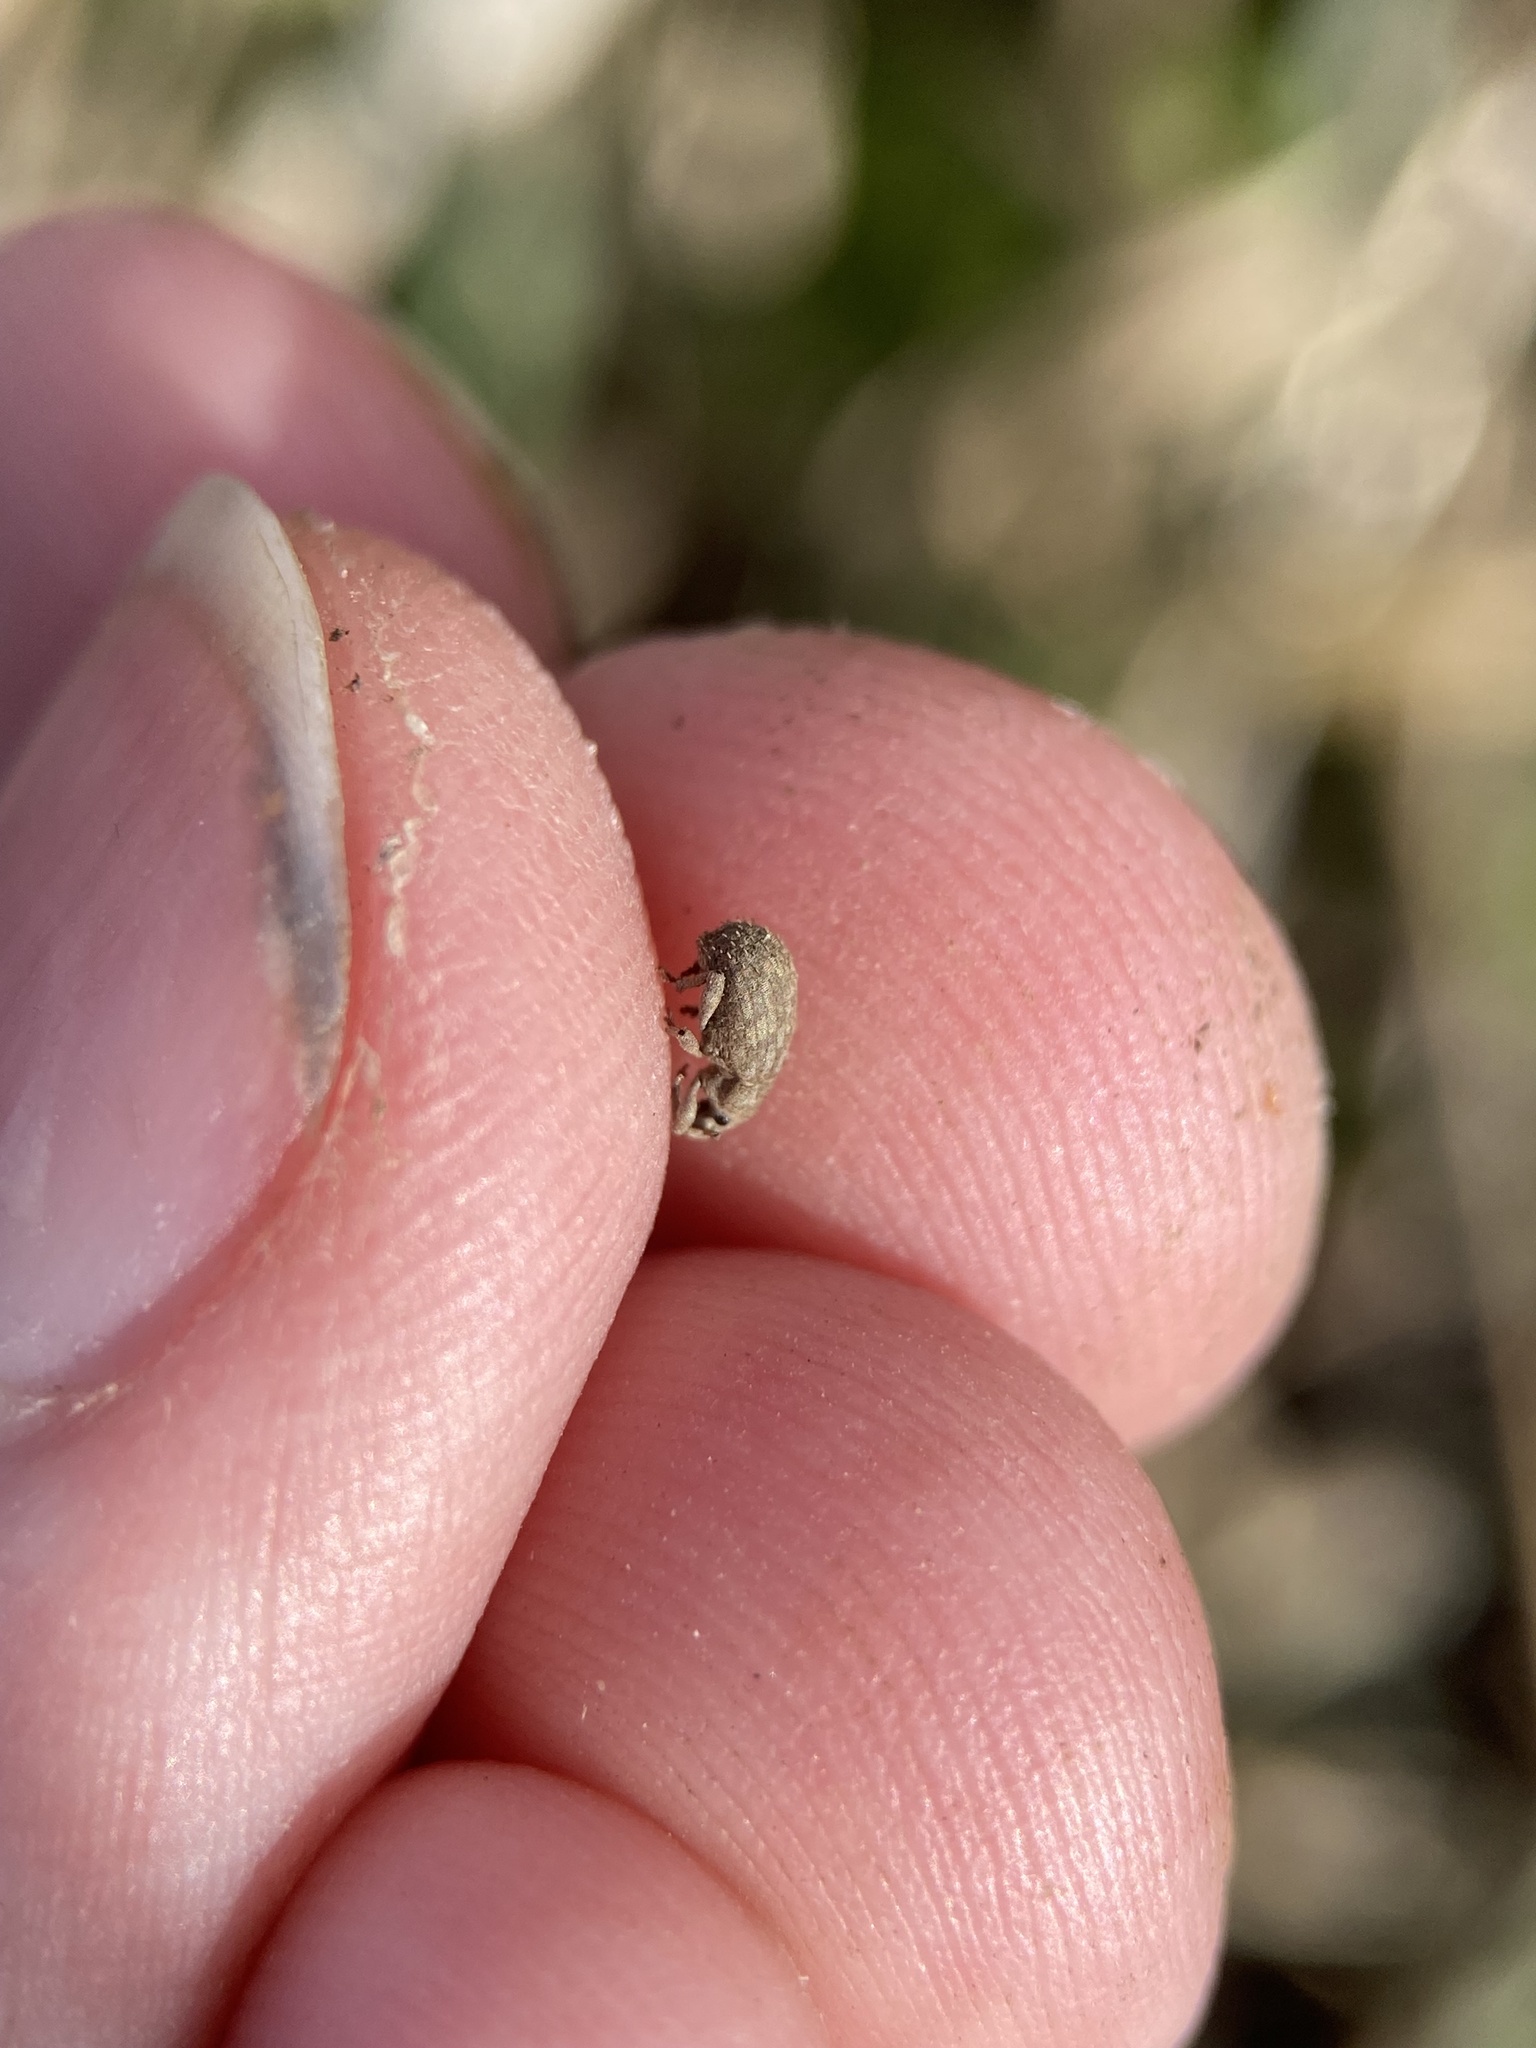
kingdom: Animalia
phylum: Arthropoda
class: Insecta
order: Coleoptera
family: Curculionidae
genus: Romualdius
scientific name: Romualdius scaber
